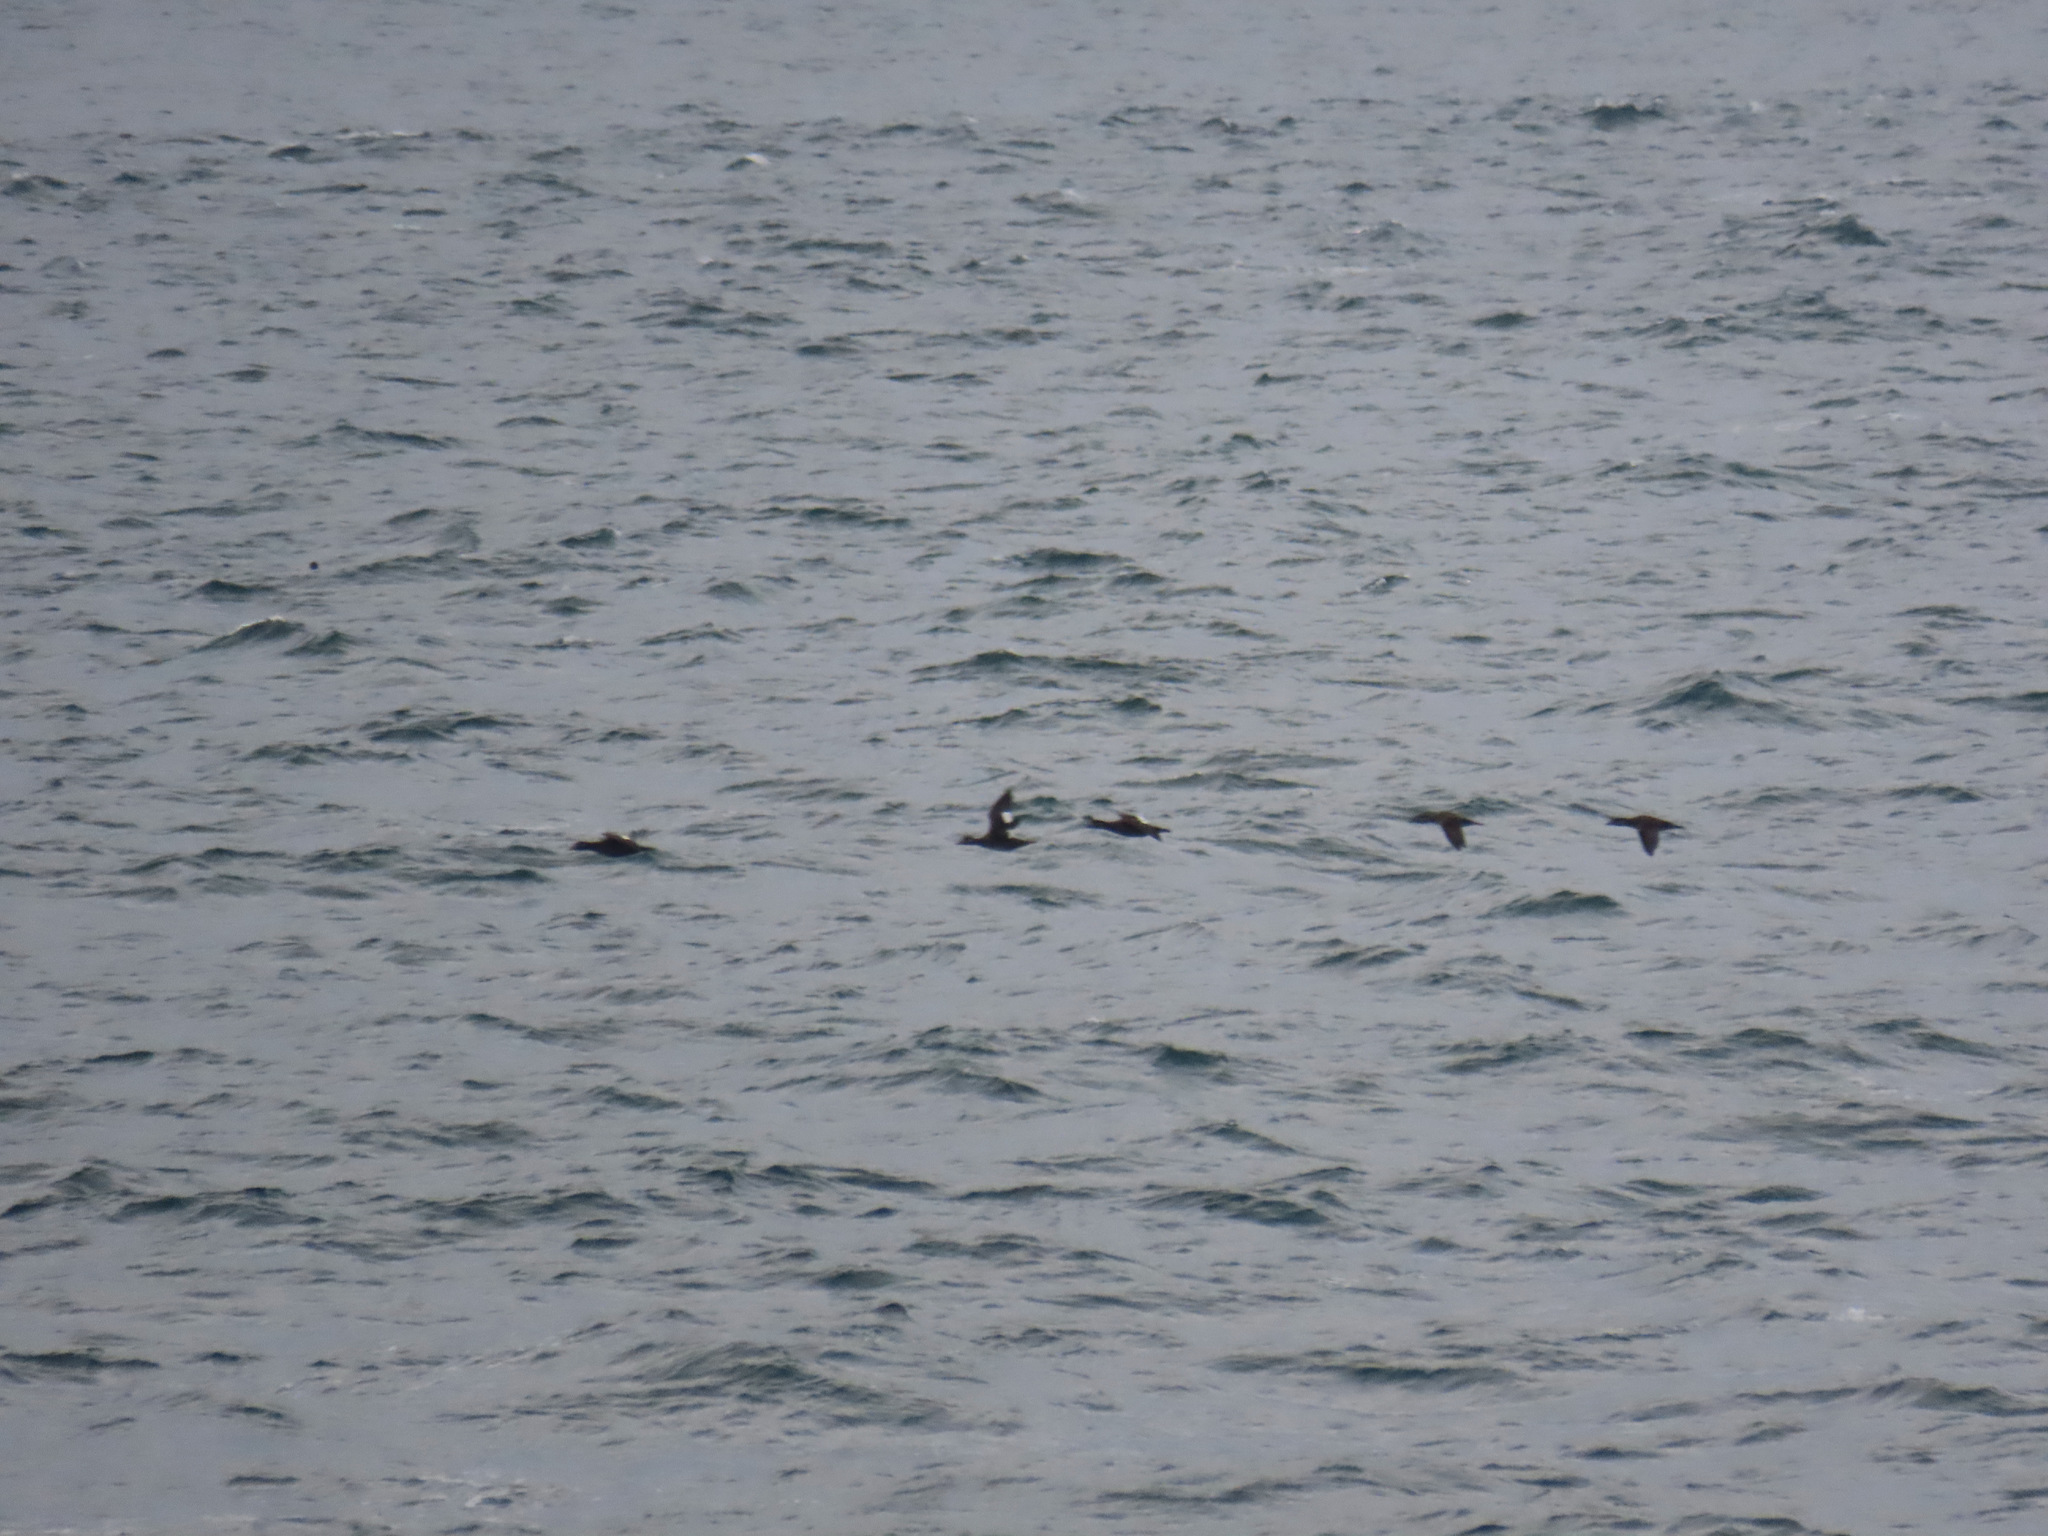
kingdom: Animalia
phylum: Chordata
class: Aves
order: Anseriformes
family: Anatidae
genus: Melanitta
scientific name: Melanitta deglandi
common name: White-winged scoter
